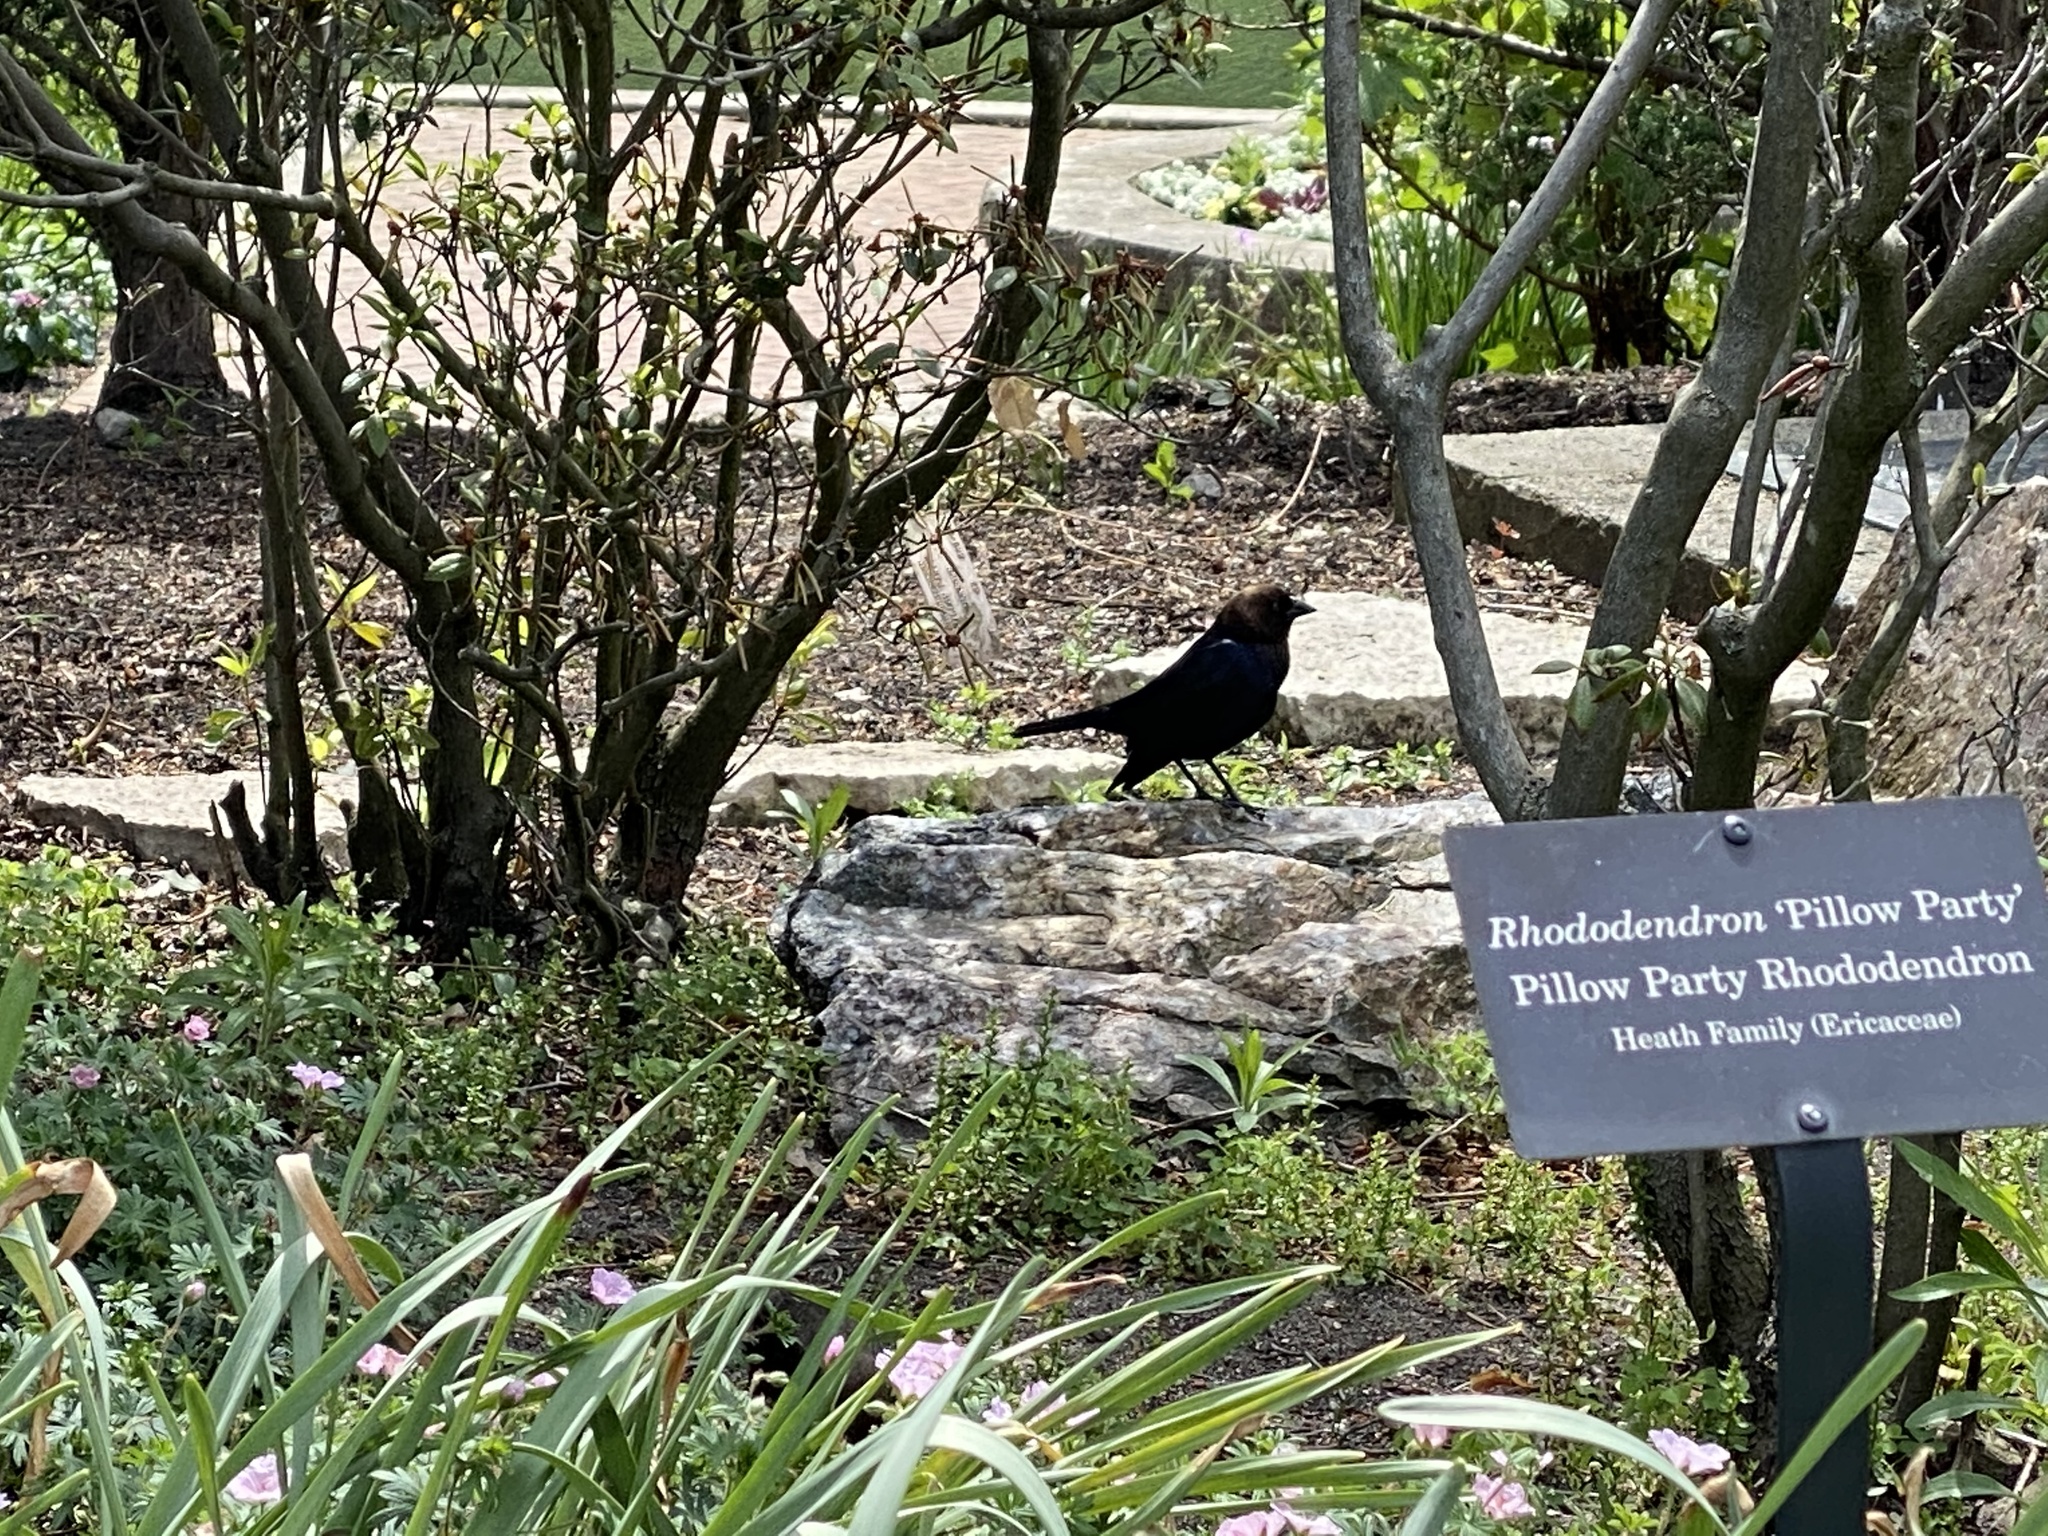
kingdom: Animalia
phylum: Chordata
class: Aves
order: Passeriformes
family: Icteridae
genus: Molothrus
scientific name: Molothrus ater
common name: Brown-headed cowbird
